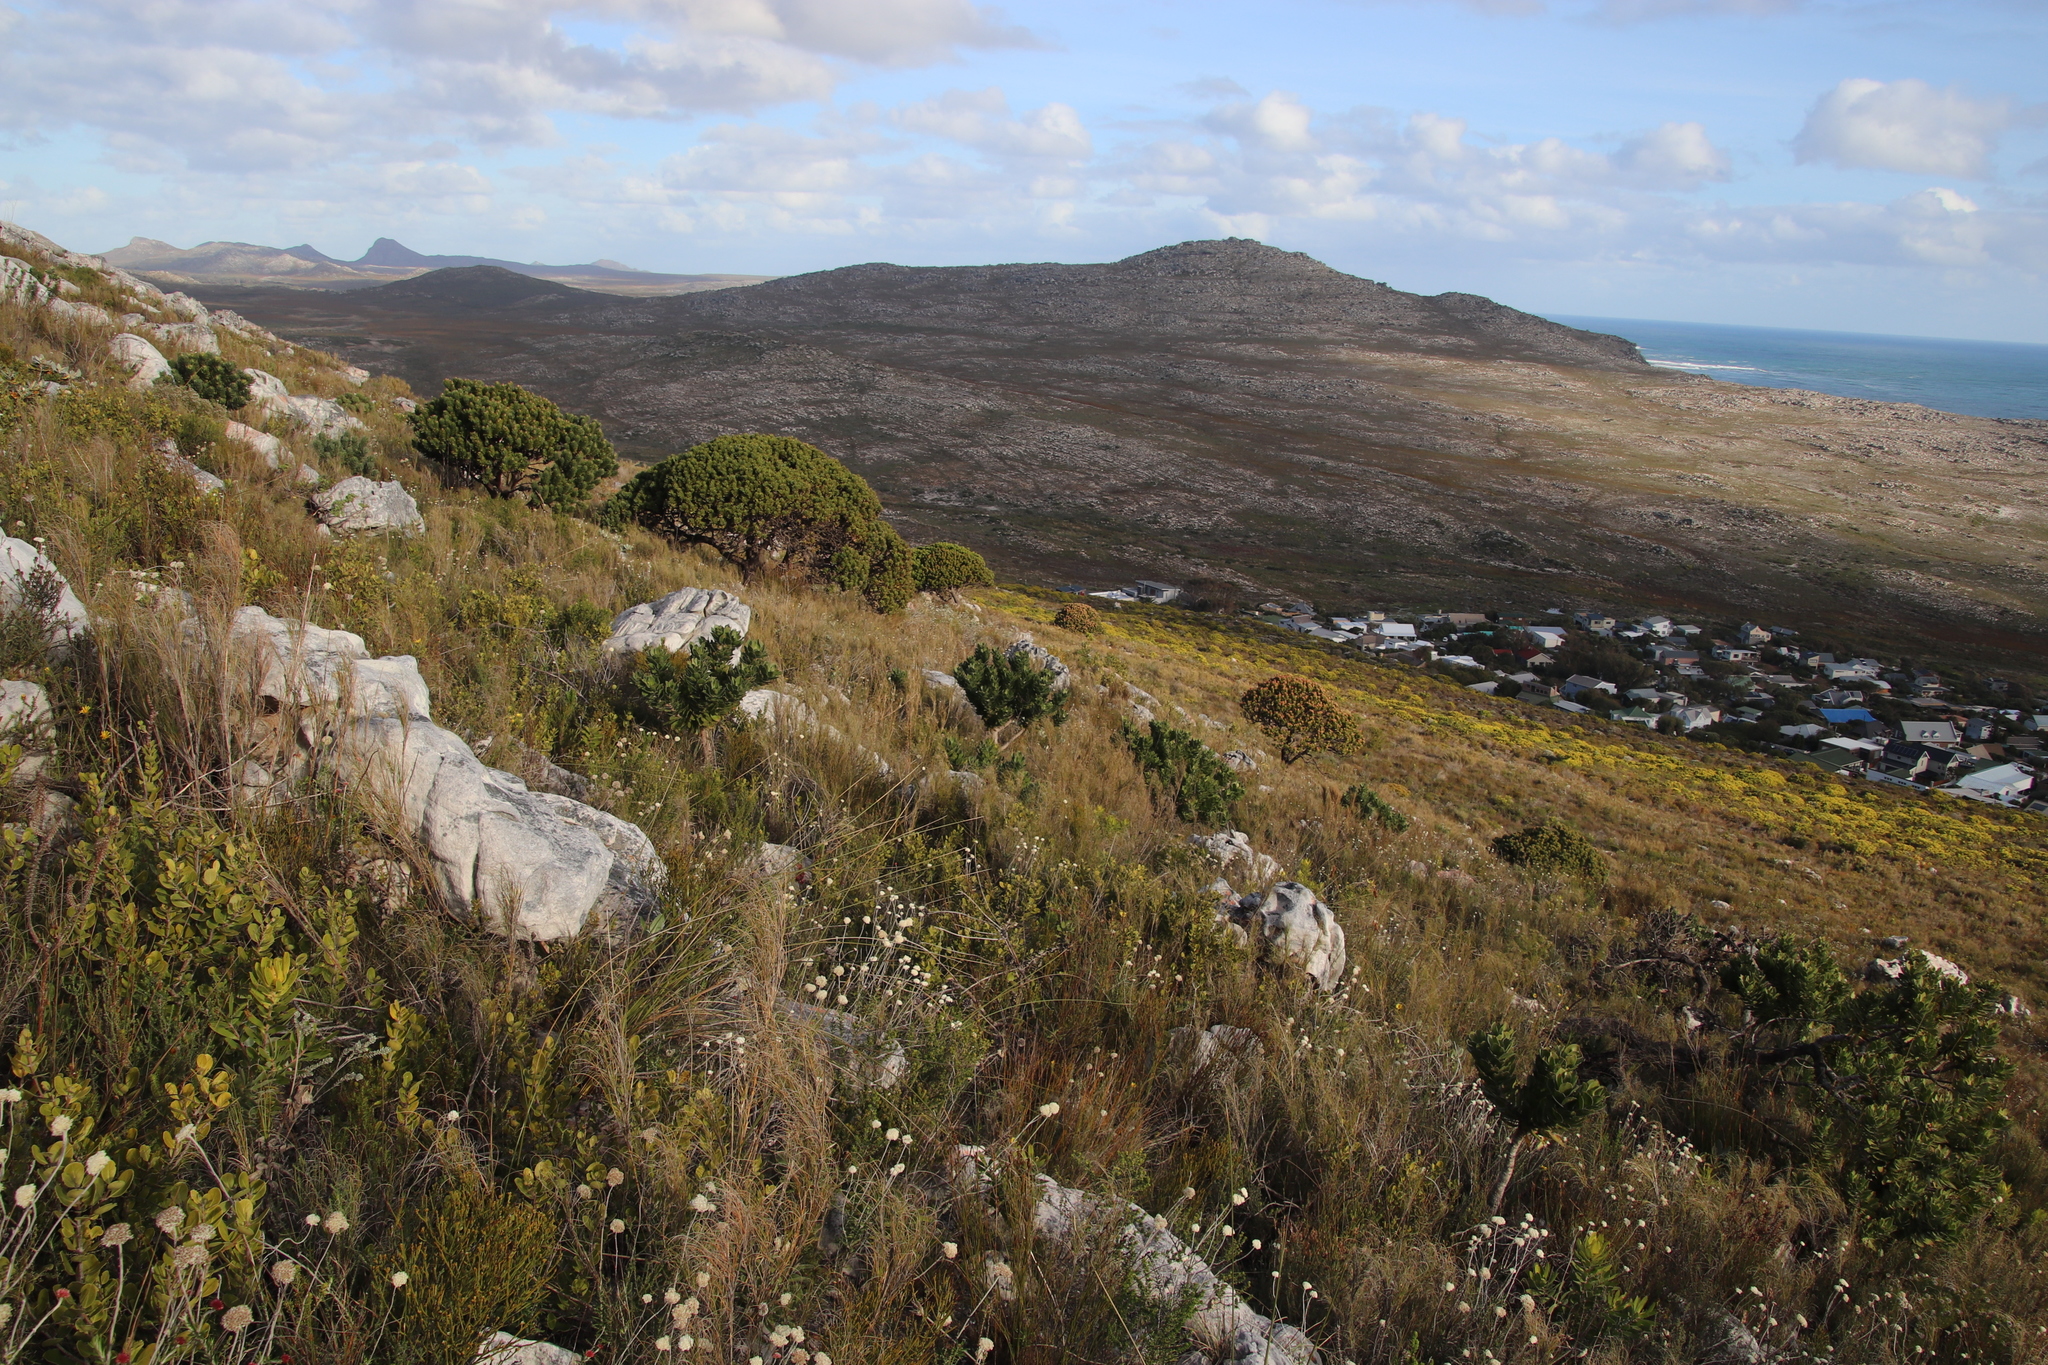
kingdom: Plantae
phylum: Tracheophyta
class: Magnoliopsida
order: Proteales
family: Proteaceae
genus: Leucospermum
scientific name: Leucospermum conocarpodendron
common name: Tree pincushion
